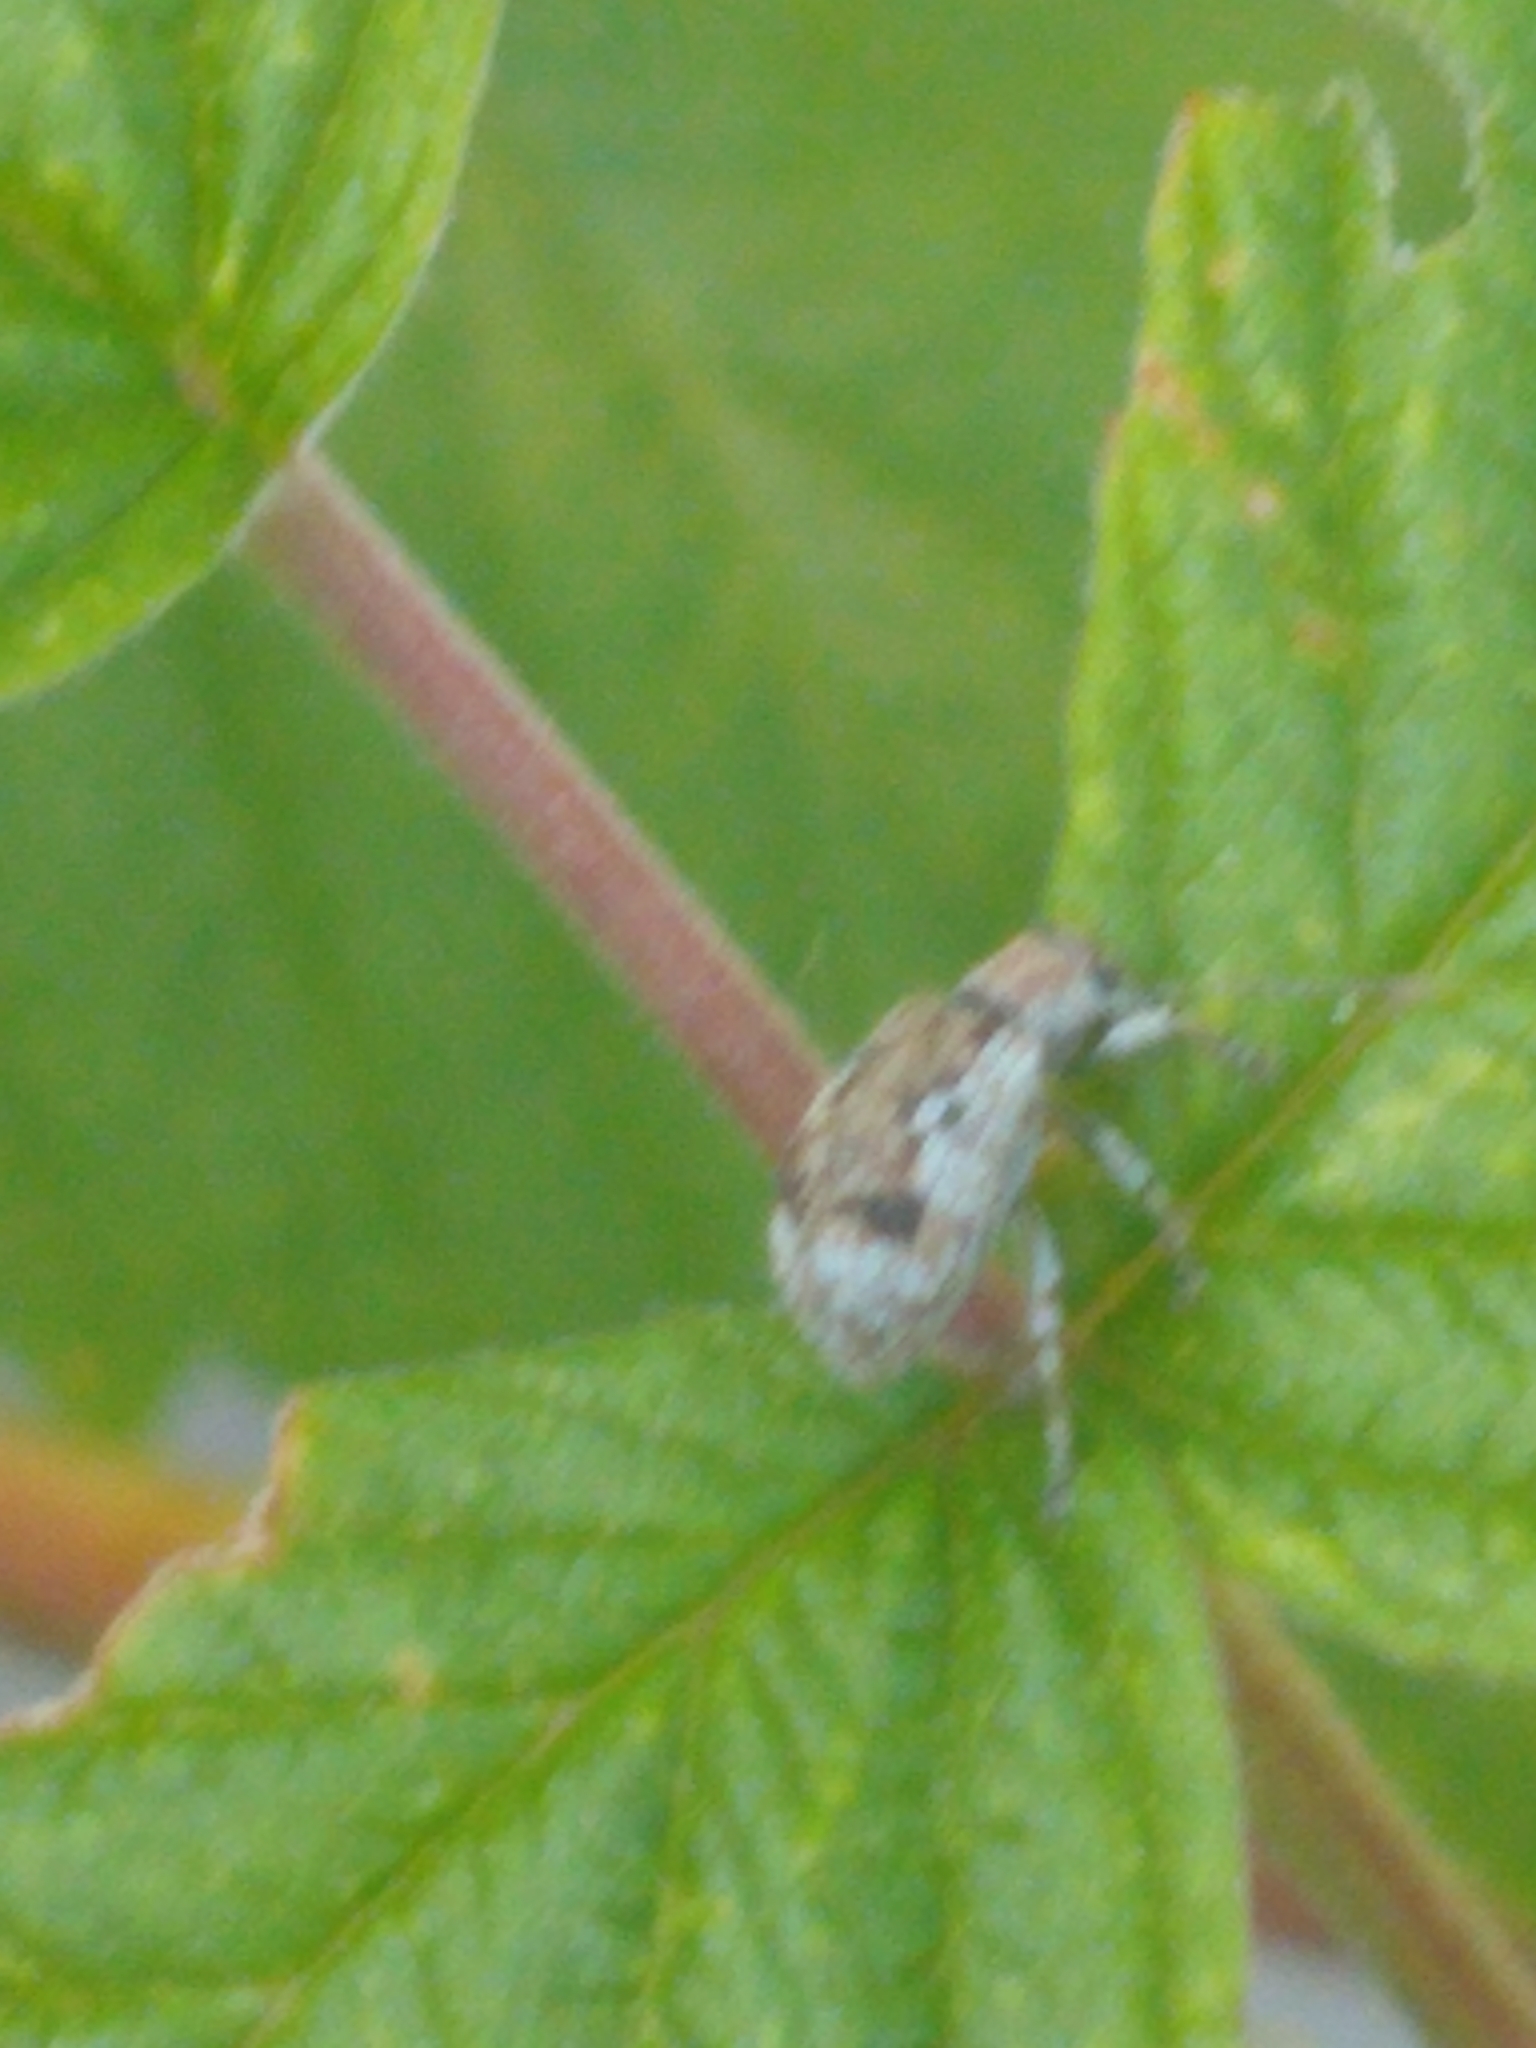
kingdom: Animalia
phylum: Arthropoda
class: Insecta
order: Coleoptera
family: Curculionidae
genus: Pseudoedophrys
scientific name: Pseudoedophrys hilleri
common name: Weevil
